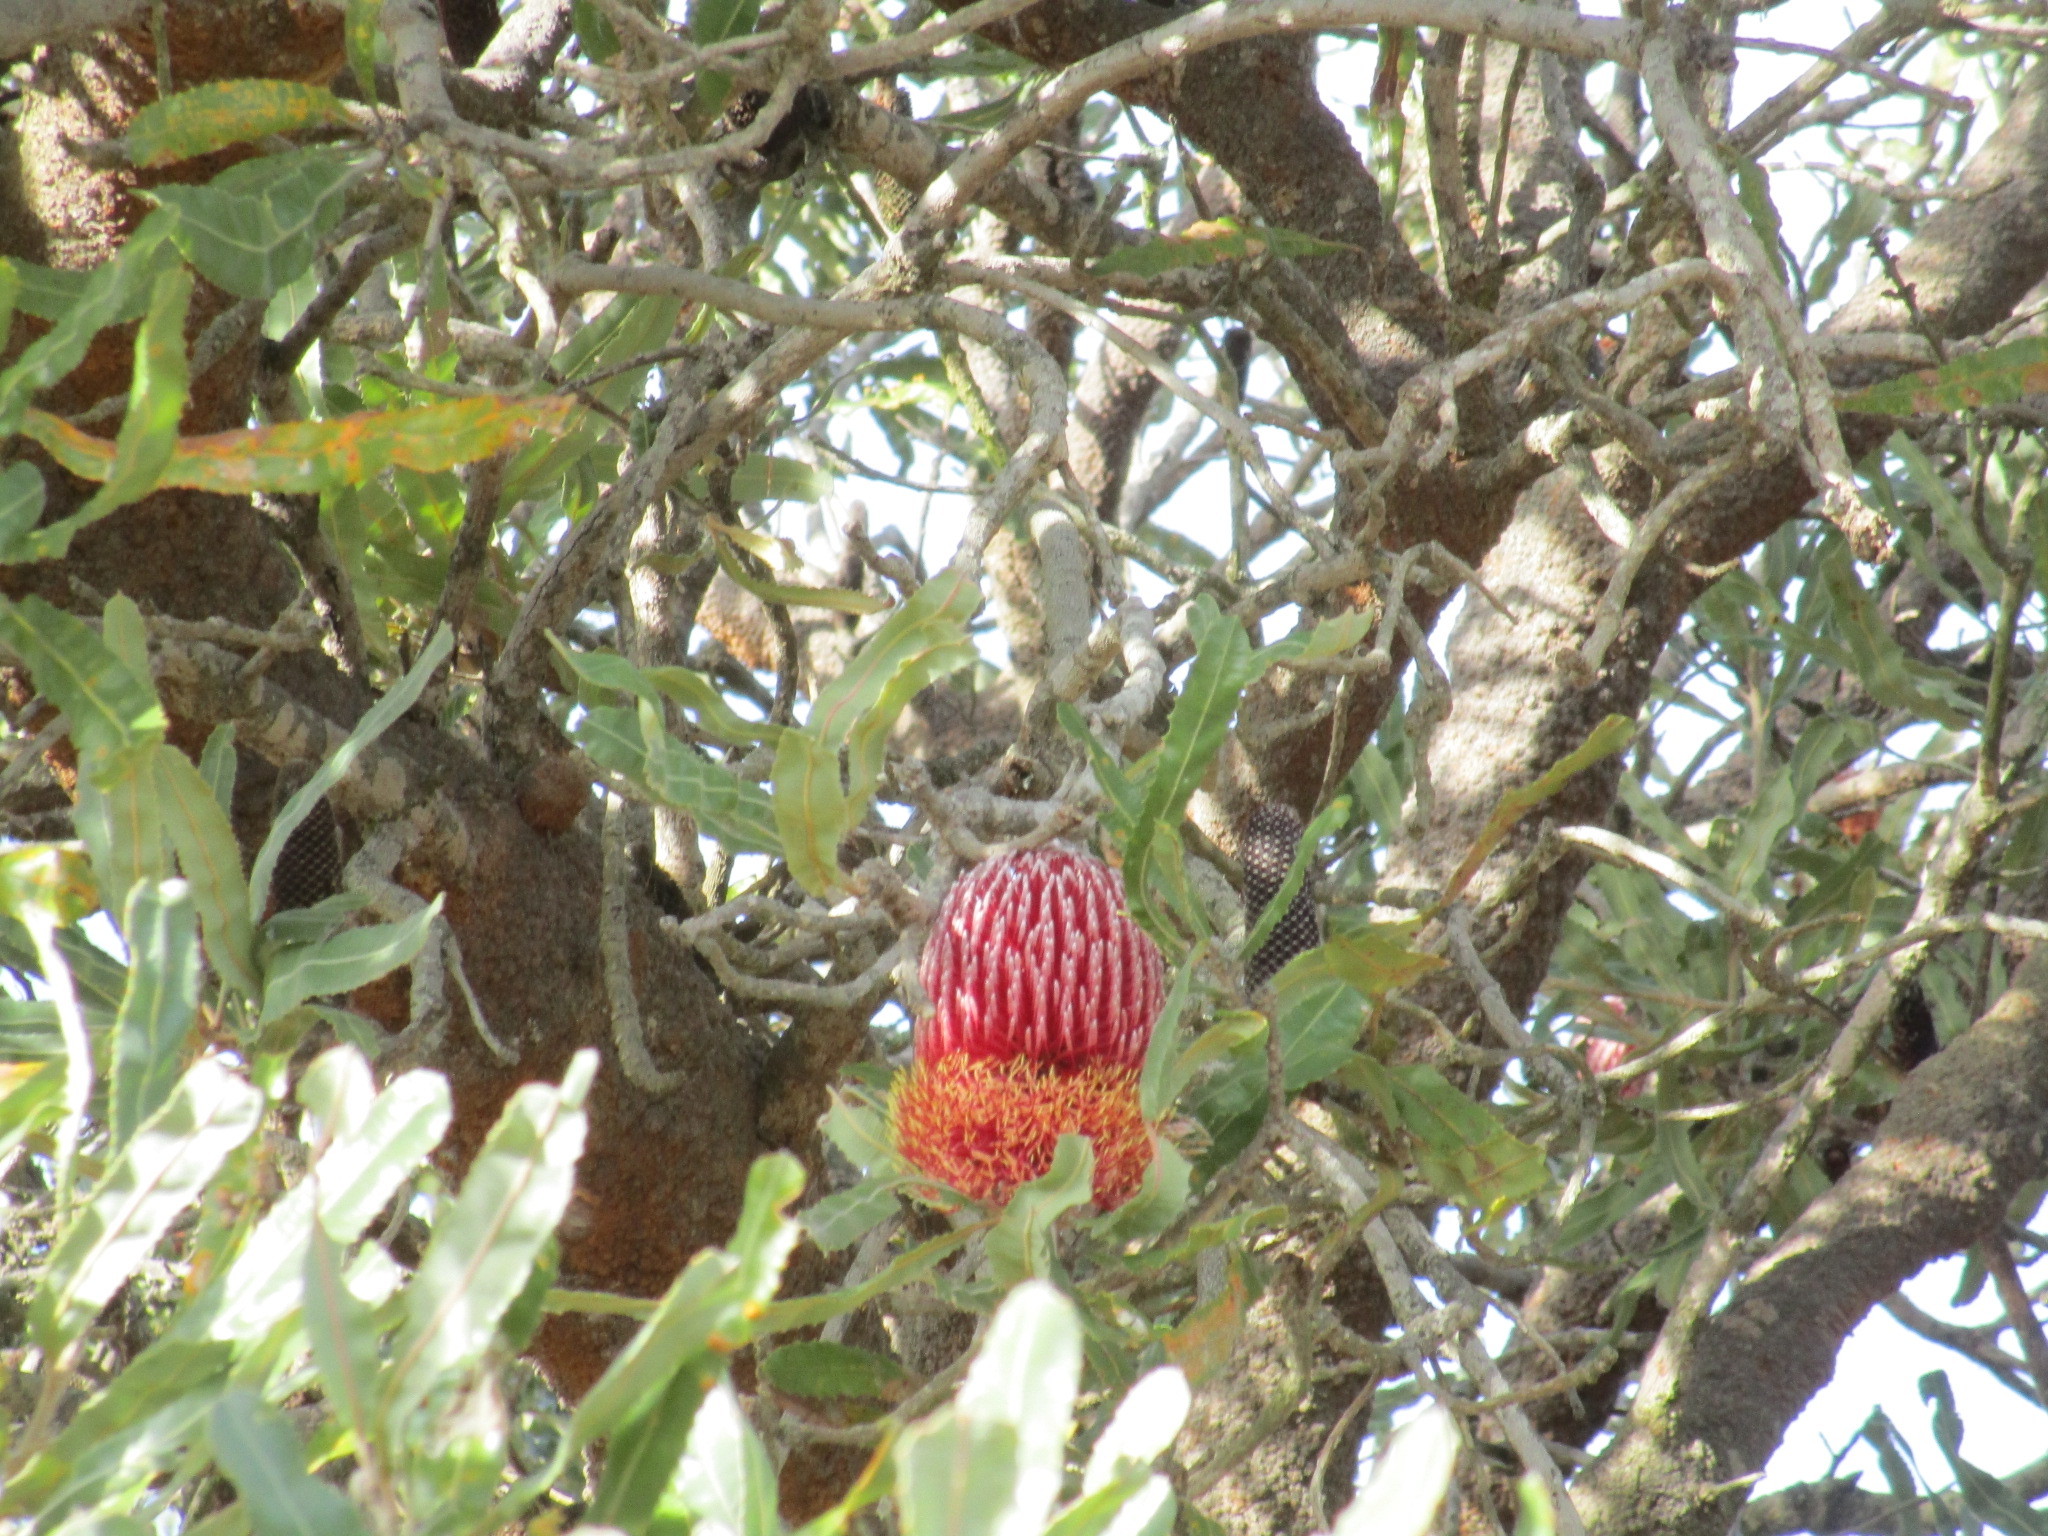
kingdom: Plantae
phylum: Tracheophyta
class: Magnoliopsida
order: Proteales
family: Proteaceae
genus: Banksia
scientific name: Banksia menziesii
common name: Menzie's banksia
